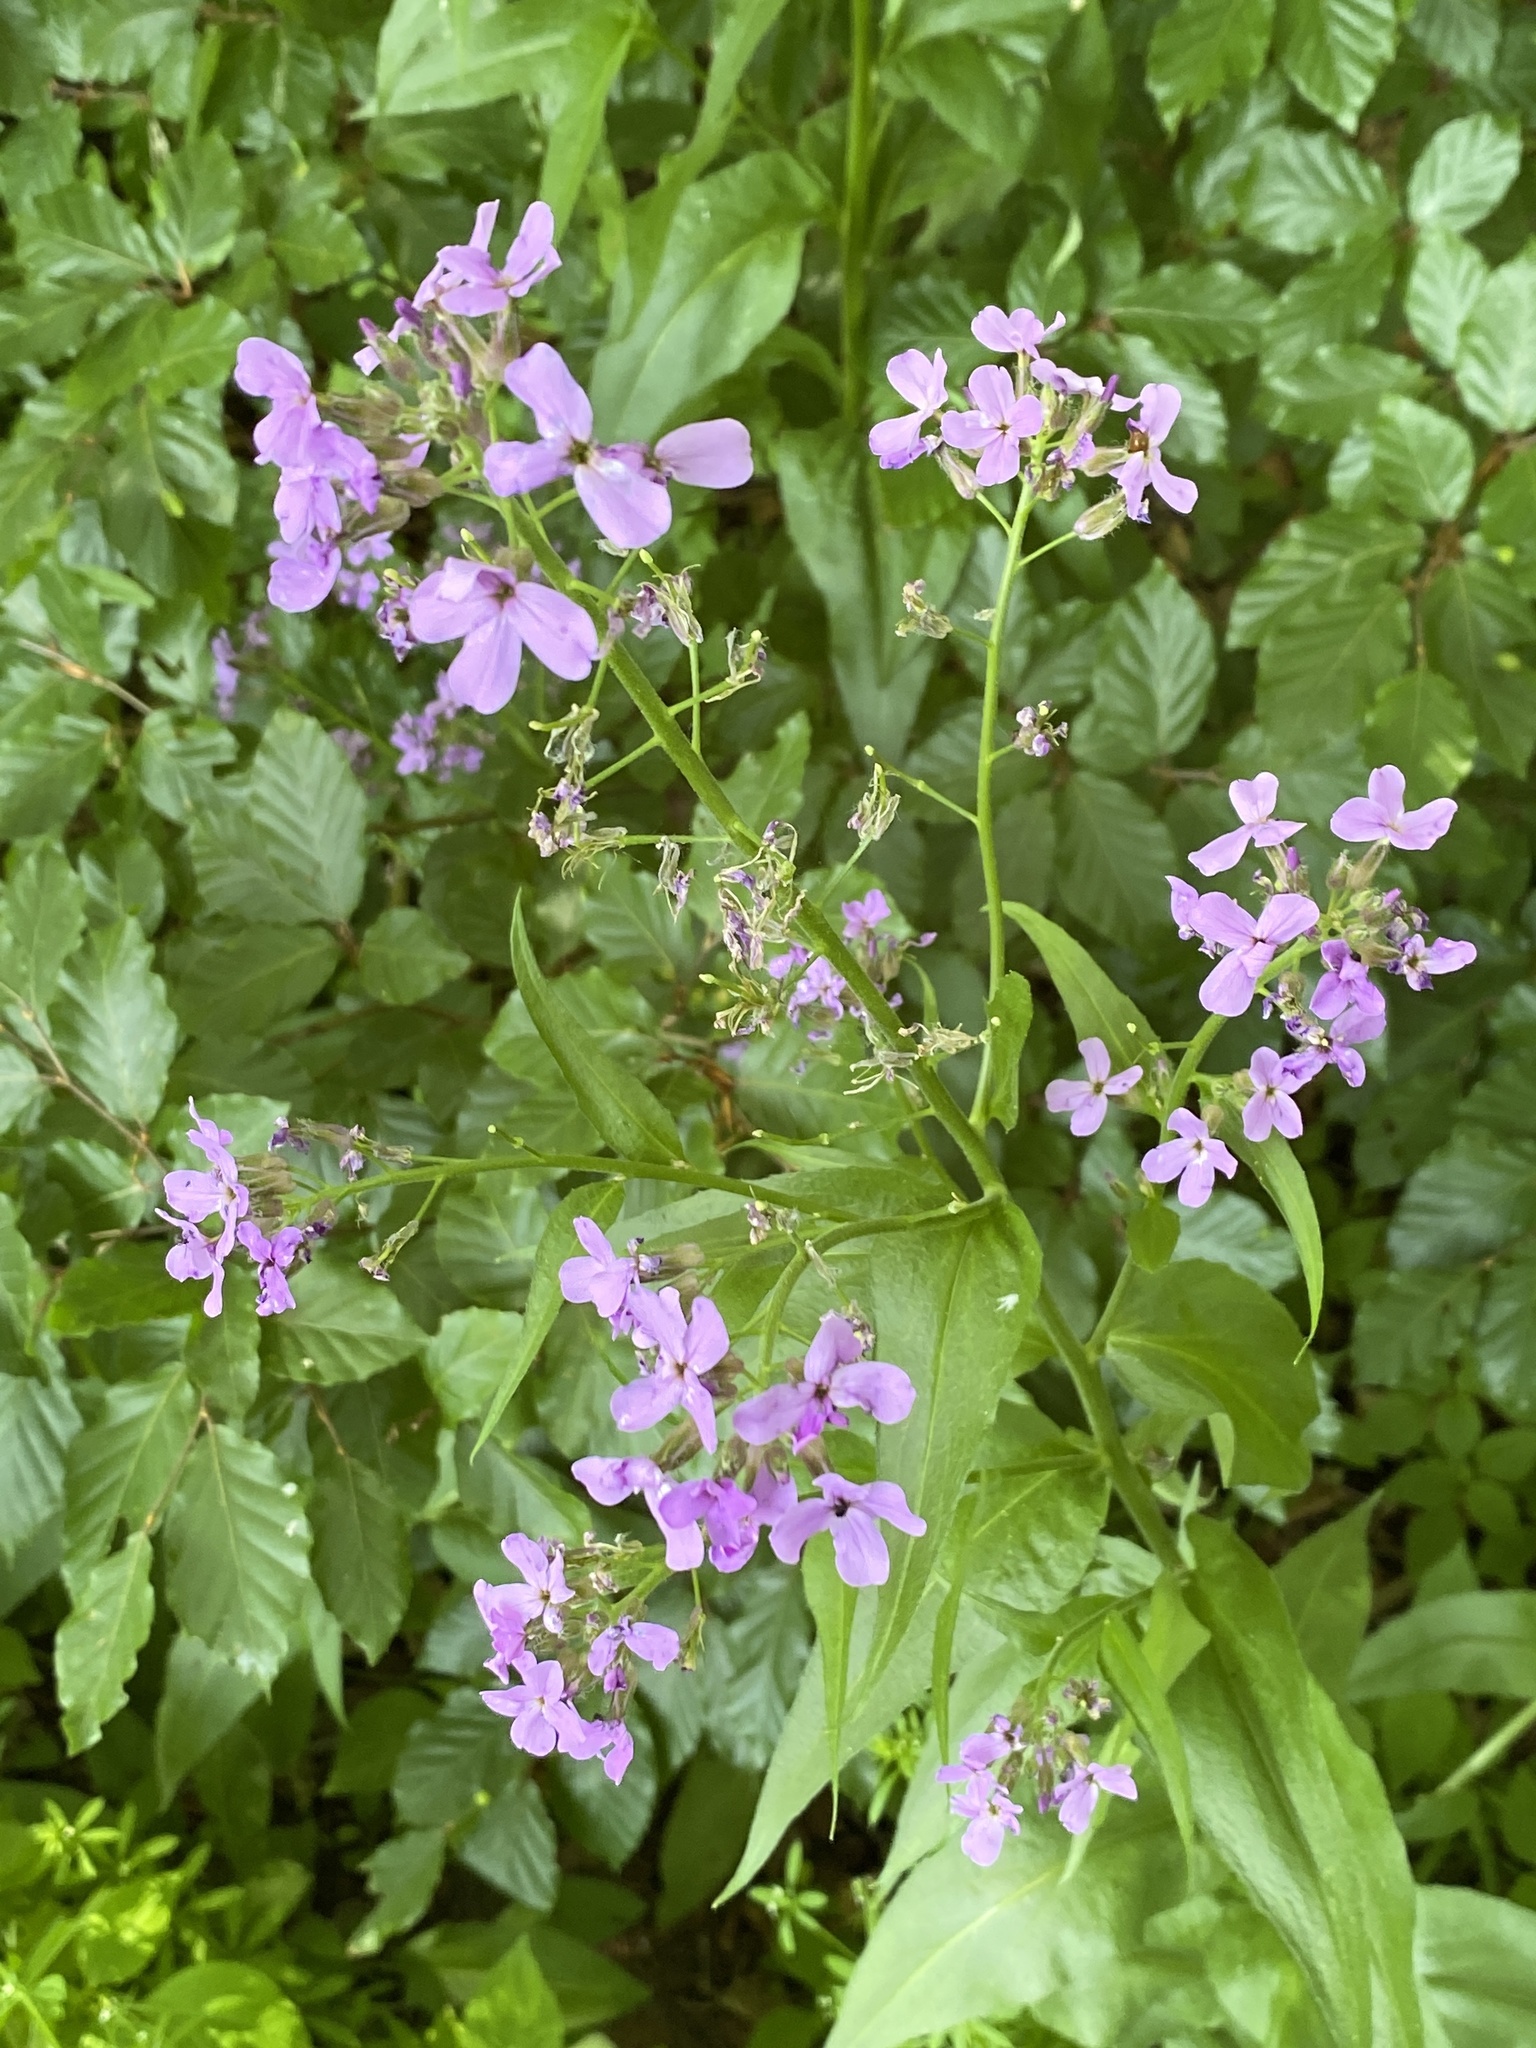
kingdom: Plantae
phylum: Tracheophyta
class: Magnoliopsida
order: Brassicales
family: Brassicaceae
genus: Hesperis
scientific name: Hesperis matronalis
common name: Dame's-violet
